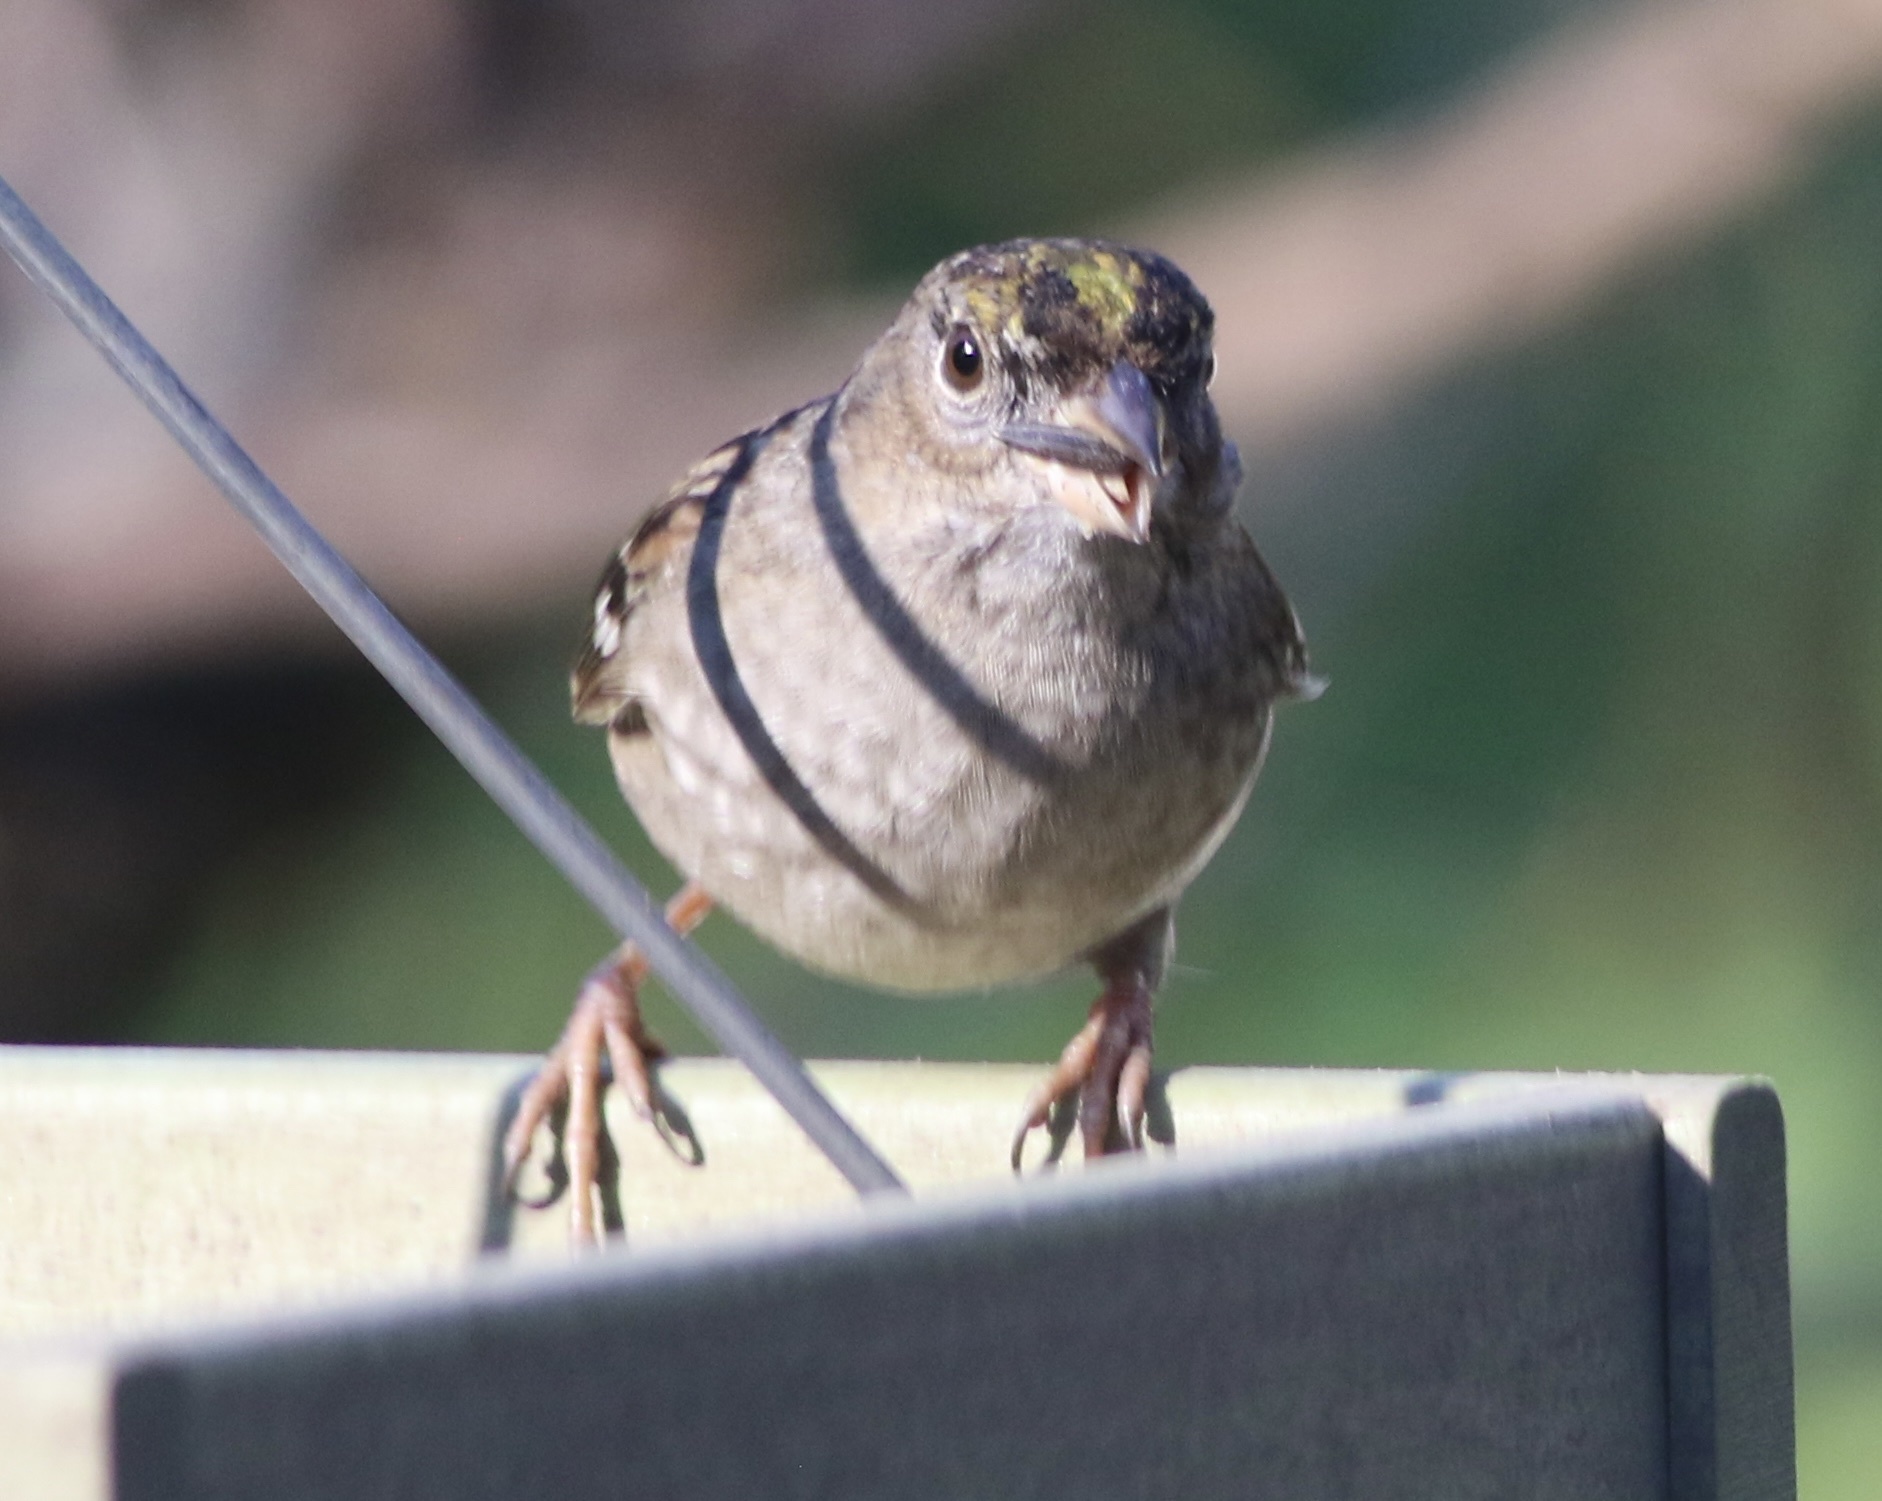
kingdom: Animalia
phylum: Chordata
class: Aves
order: Passeriformes
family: Passerellidae
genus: Zonotrichia
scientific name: Zonotrichia atricapilla
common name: Golden-crowned sparrow
